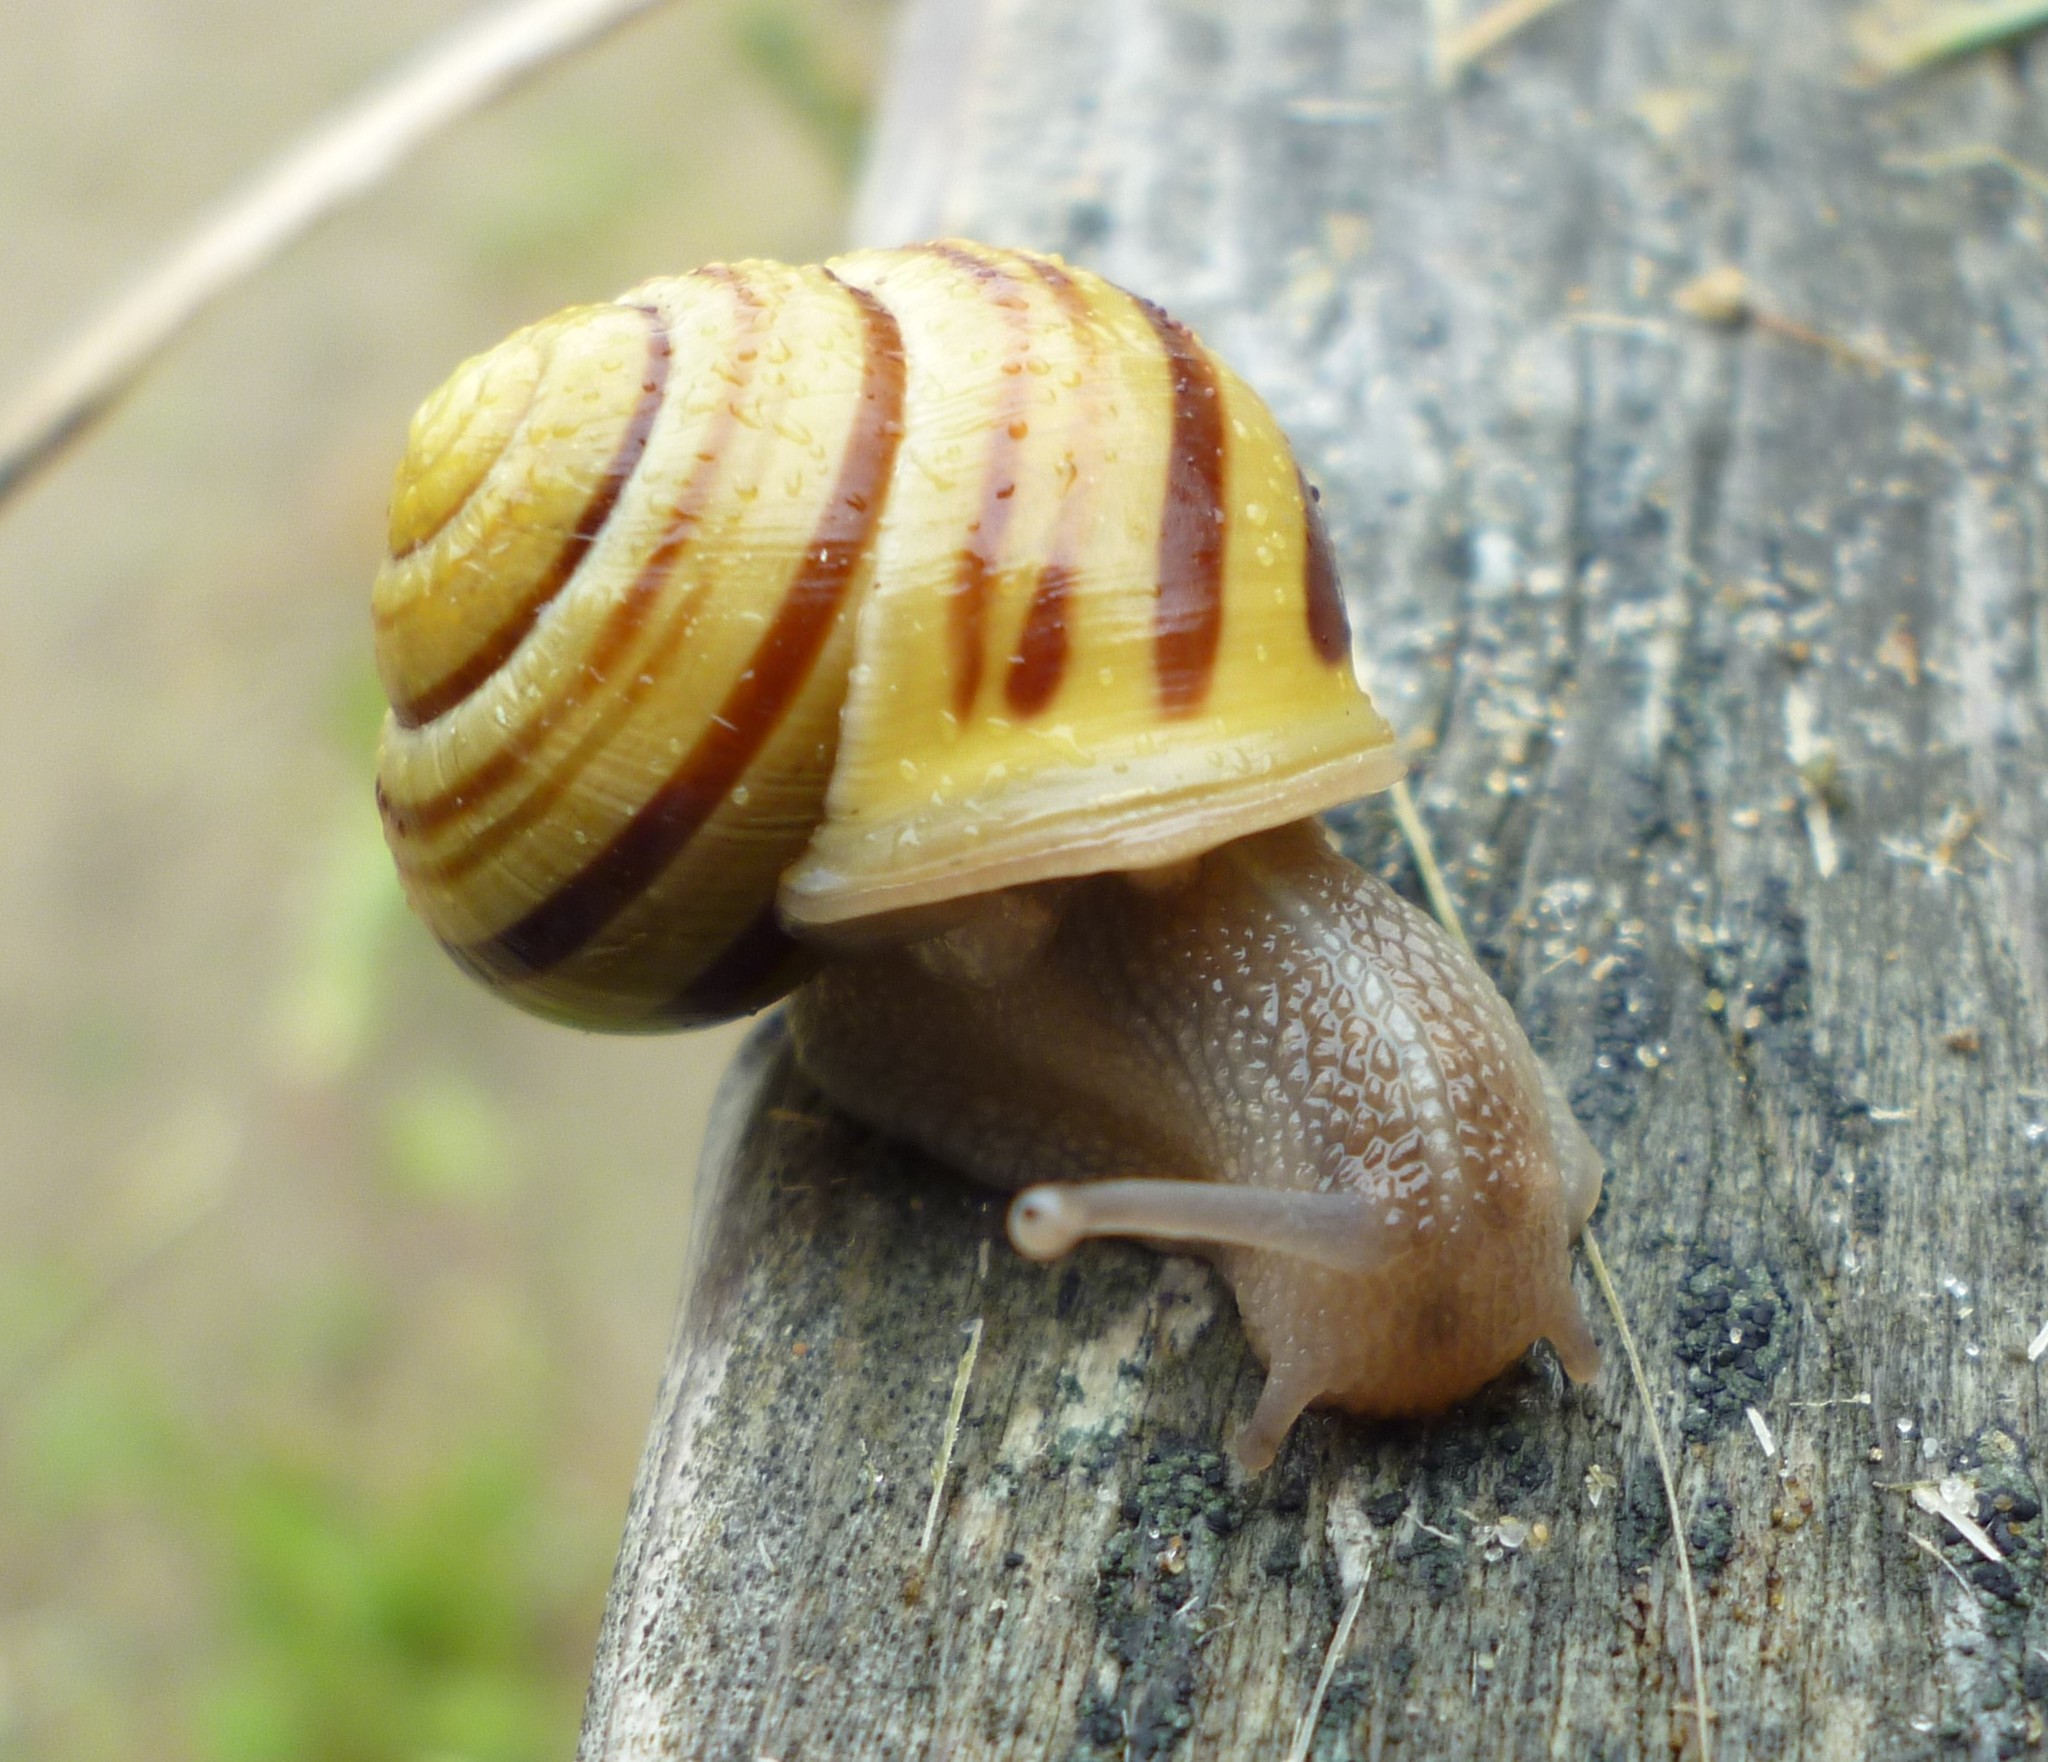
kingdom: Animalia
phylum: Mollusca
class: Gastropoda
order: Stylommatophora
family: Helicidae
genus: Cepaea
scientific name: Cepaea
